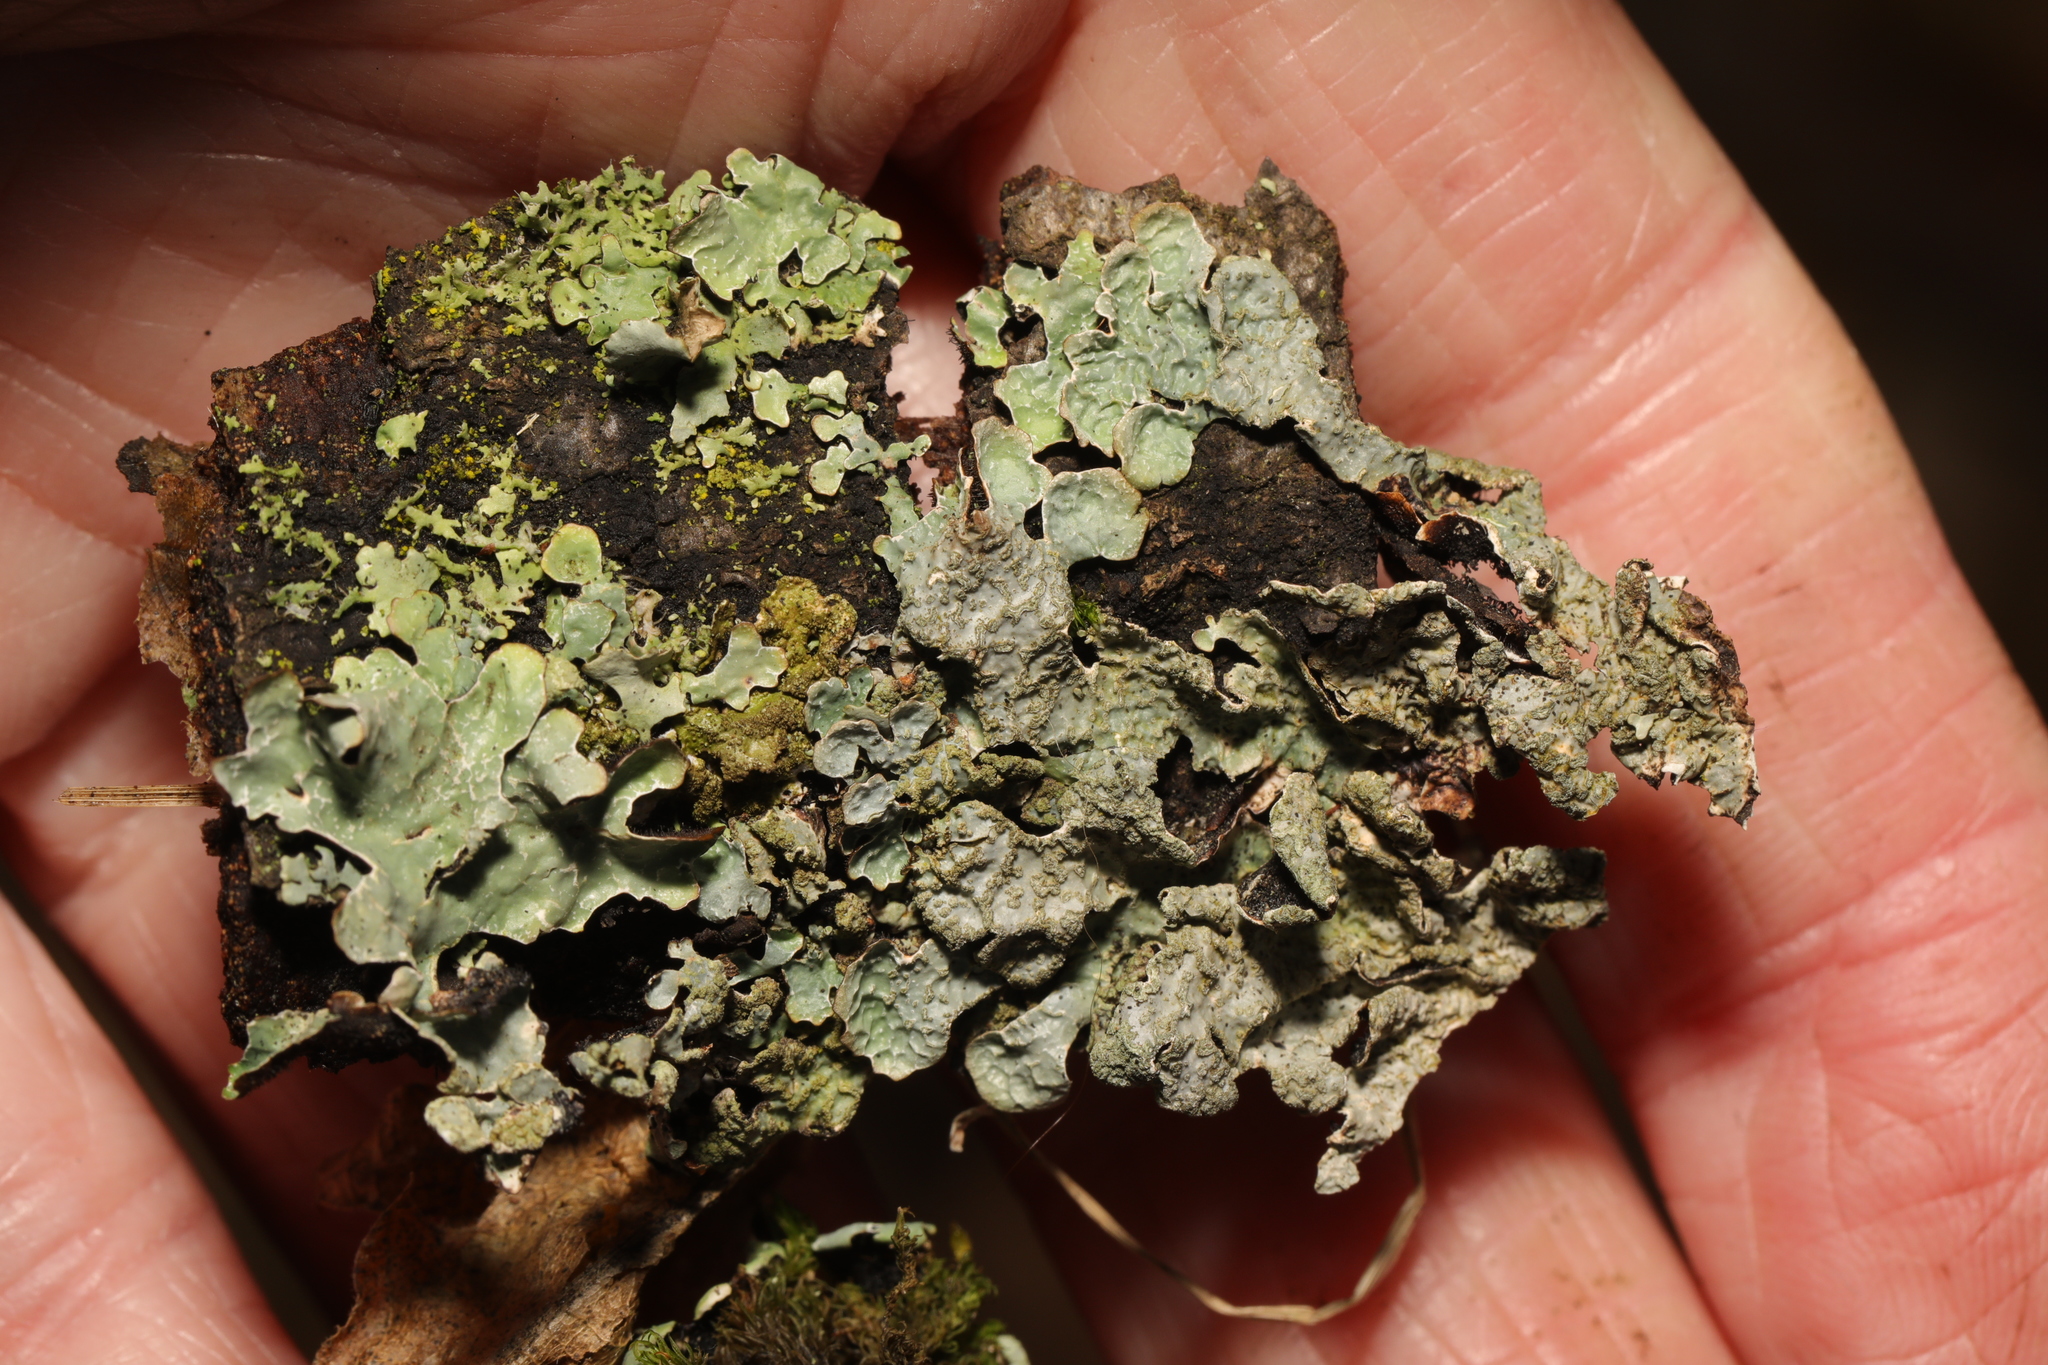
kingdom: Fungi
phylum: Ascomycota
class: Lecanoromycetes
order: Lecanorales
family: Parmeliaceae
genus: Parmelia
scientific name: Parmelia sulcata
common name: Netted shield lichen
